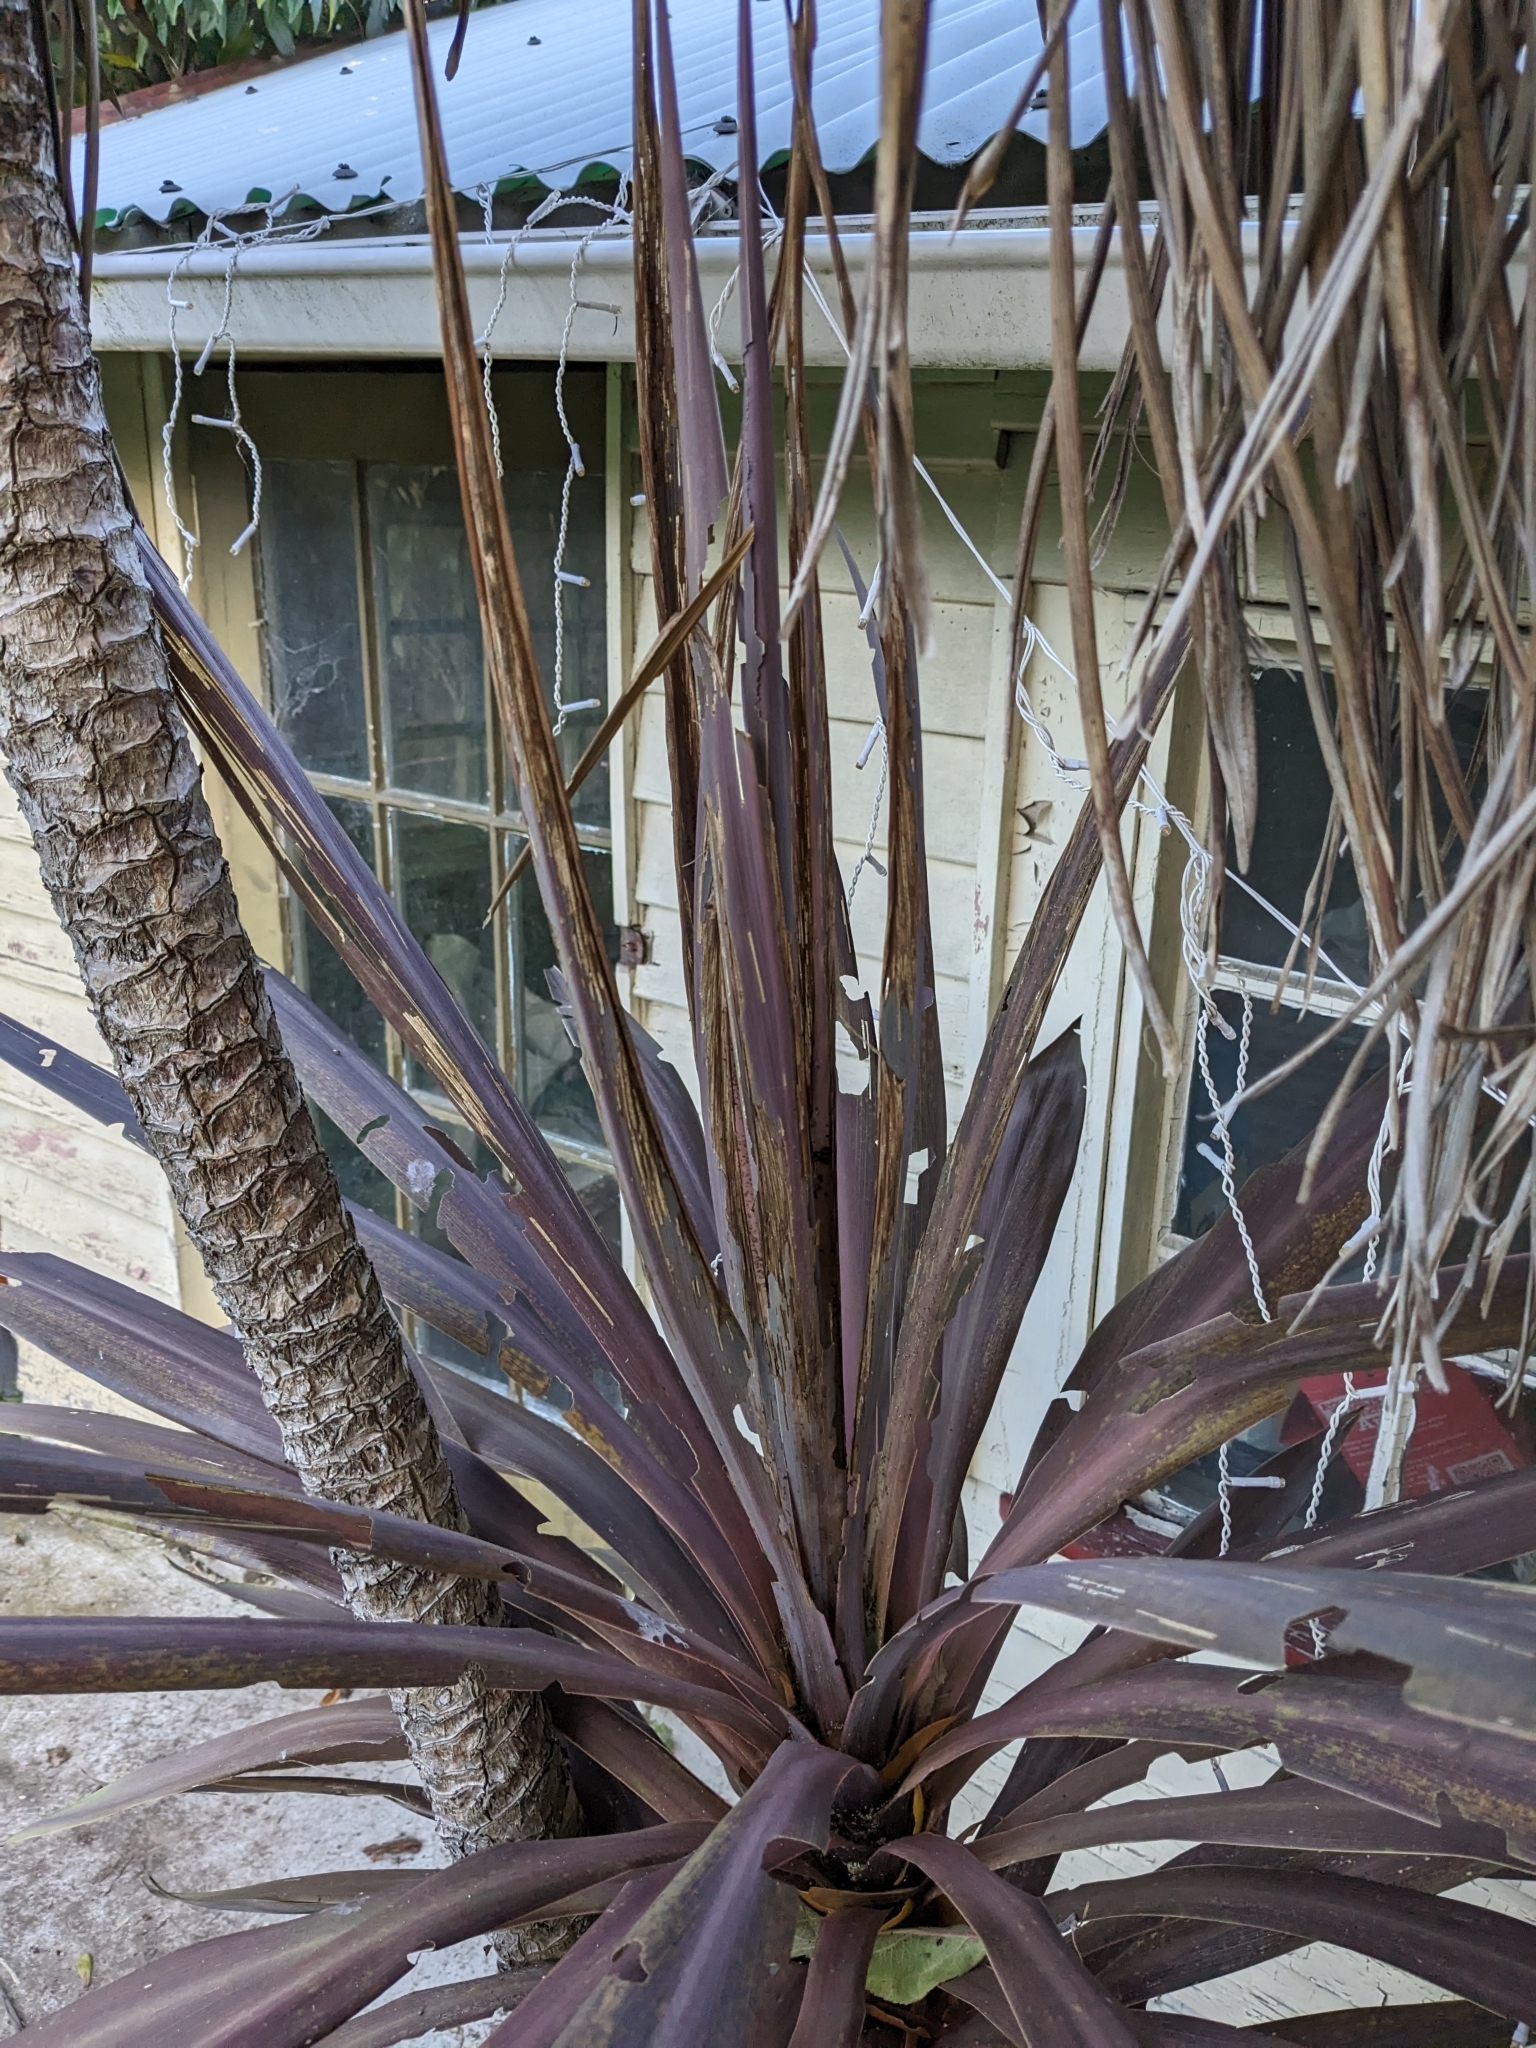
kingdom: Animalia
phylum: Arthropoda
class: Insecta
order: Lepidoptera
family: Geometridae
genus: Epiphryne
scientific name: Epiphryne verriculata
